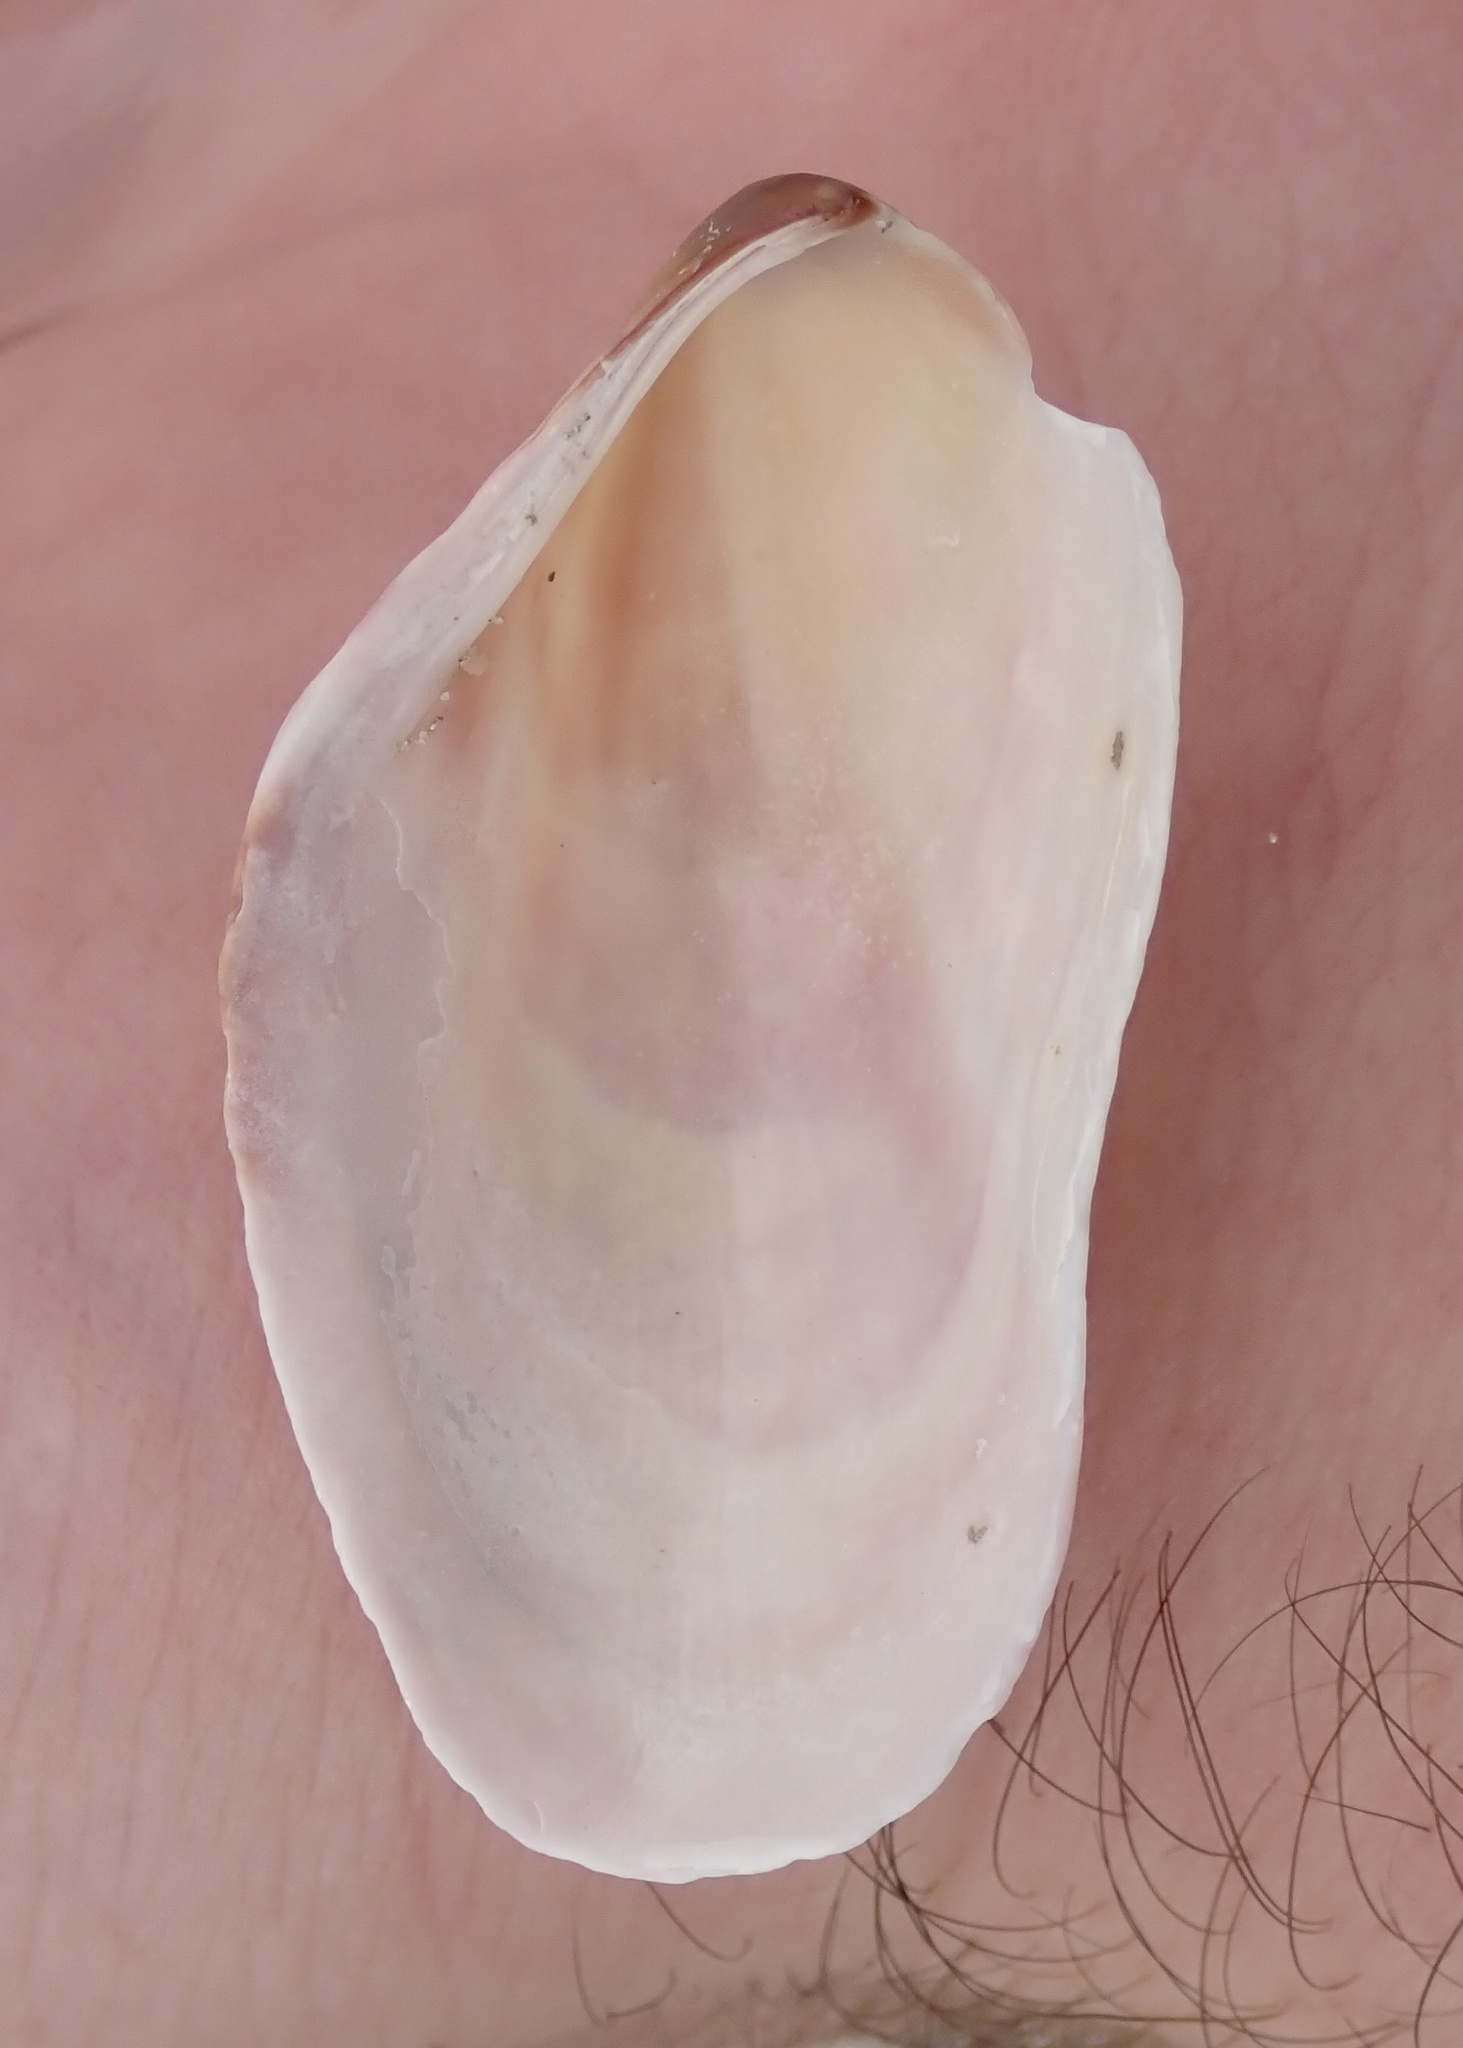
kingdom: Animalia
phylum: Mollusca
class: Bivalvia
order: Mytilida
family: Mytilidae
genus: Modiolus
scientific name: Modiolus americanus
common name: Tulip mussel
